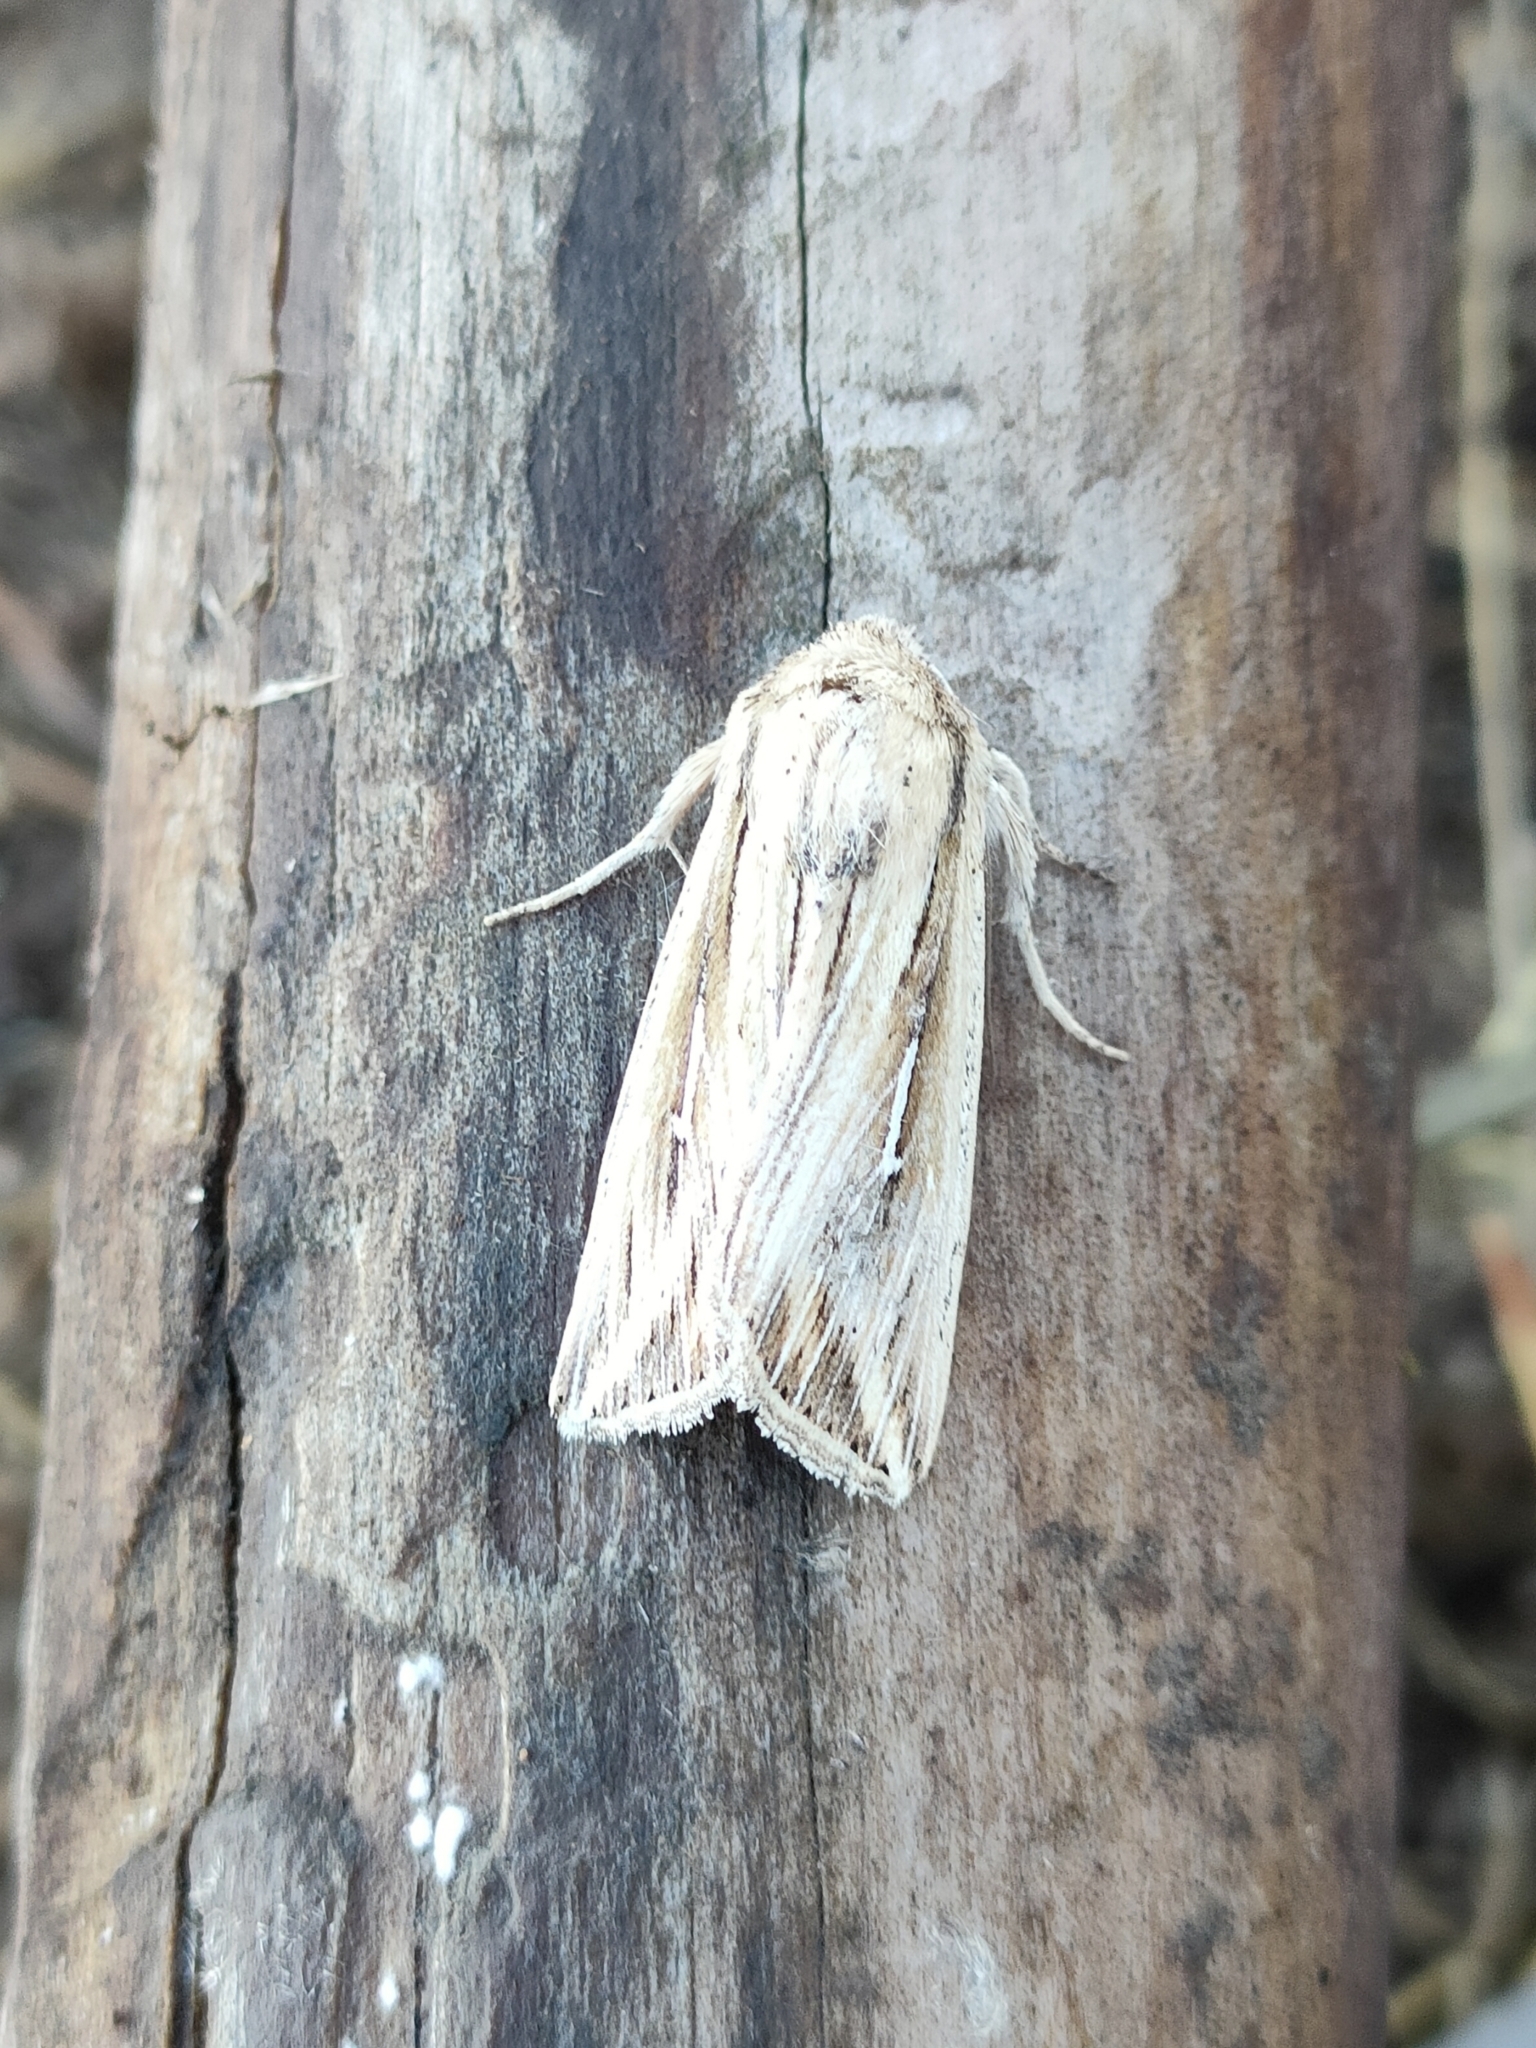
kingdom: Animalia
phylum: Arthropoda
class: Insecta
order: Lepidoptera
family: Noctuidae
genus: Mythimna
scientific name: Mythimna l-album
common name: L-album wainscot
